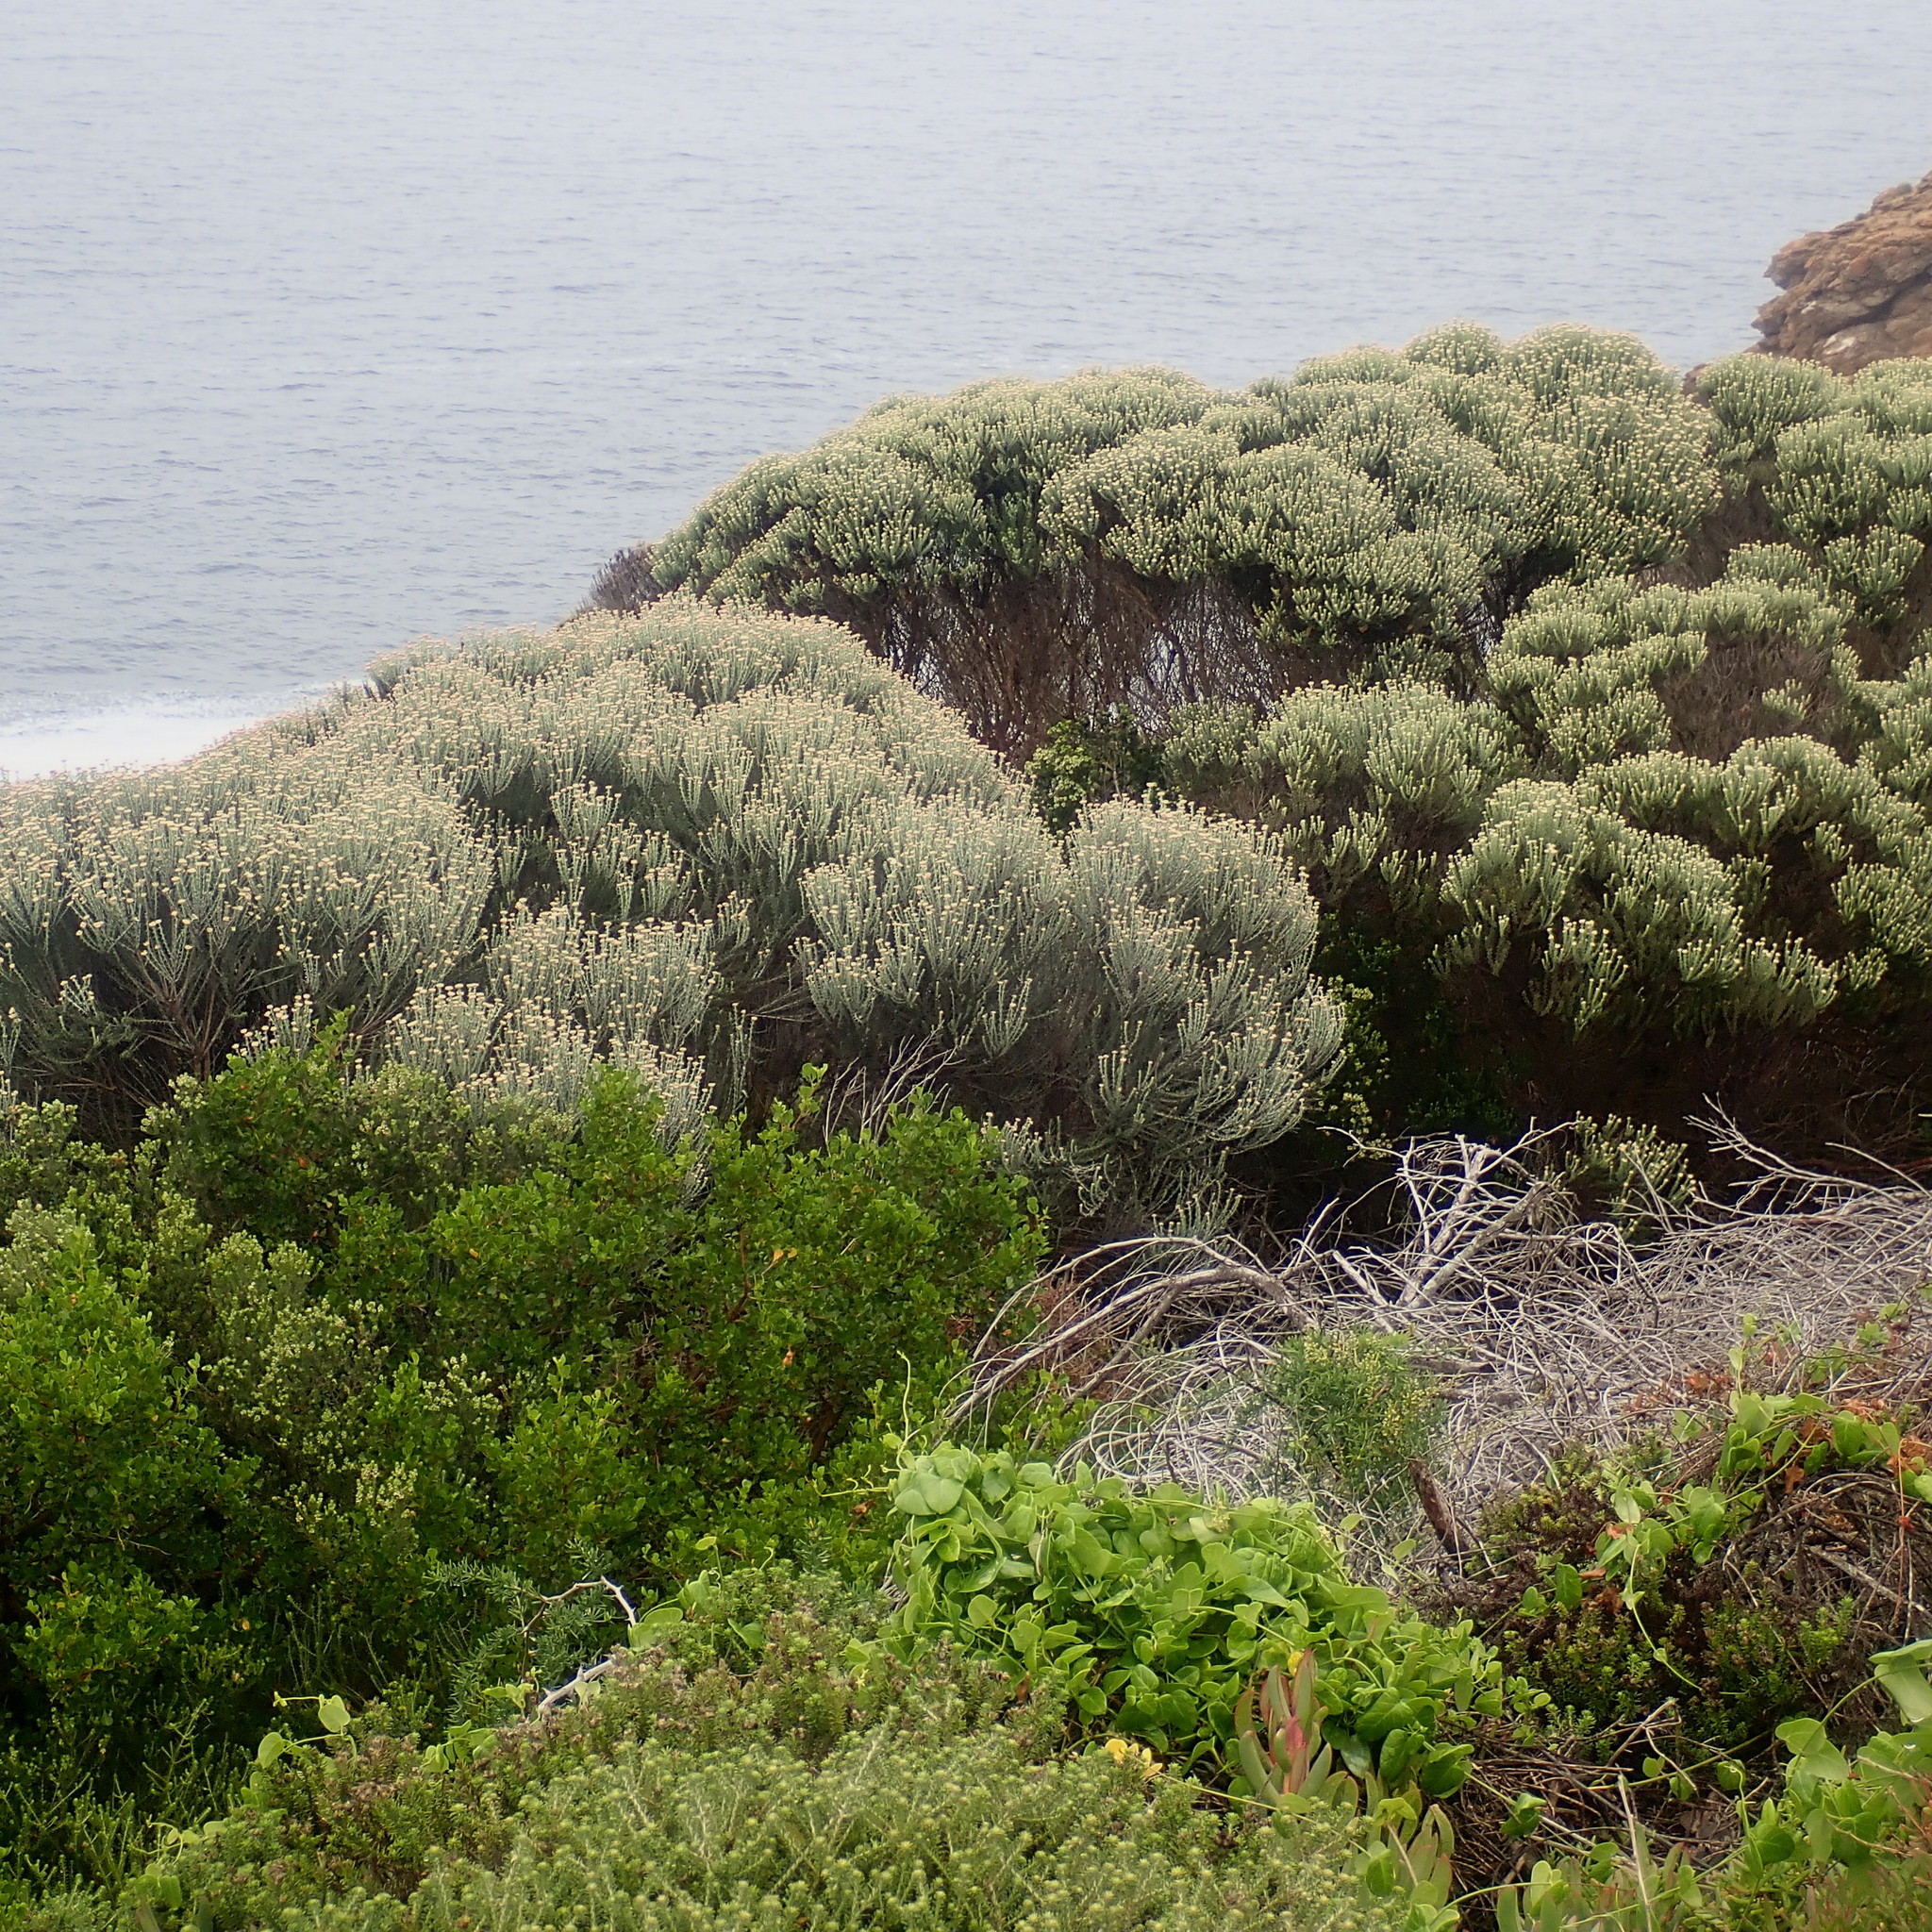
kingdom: Plantae
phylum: Tracheophyta
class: Magnoliopsida
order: Asterales
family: Asteraceae
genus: Metalasia
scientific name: Metalasia muricata
